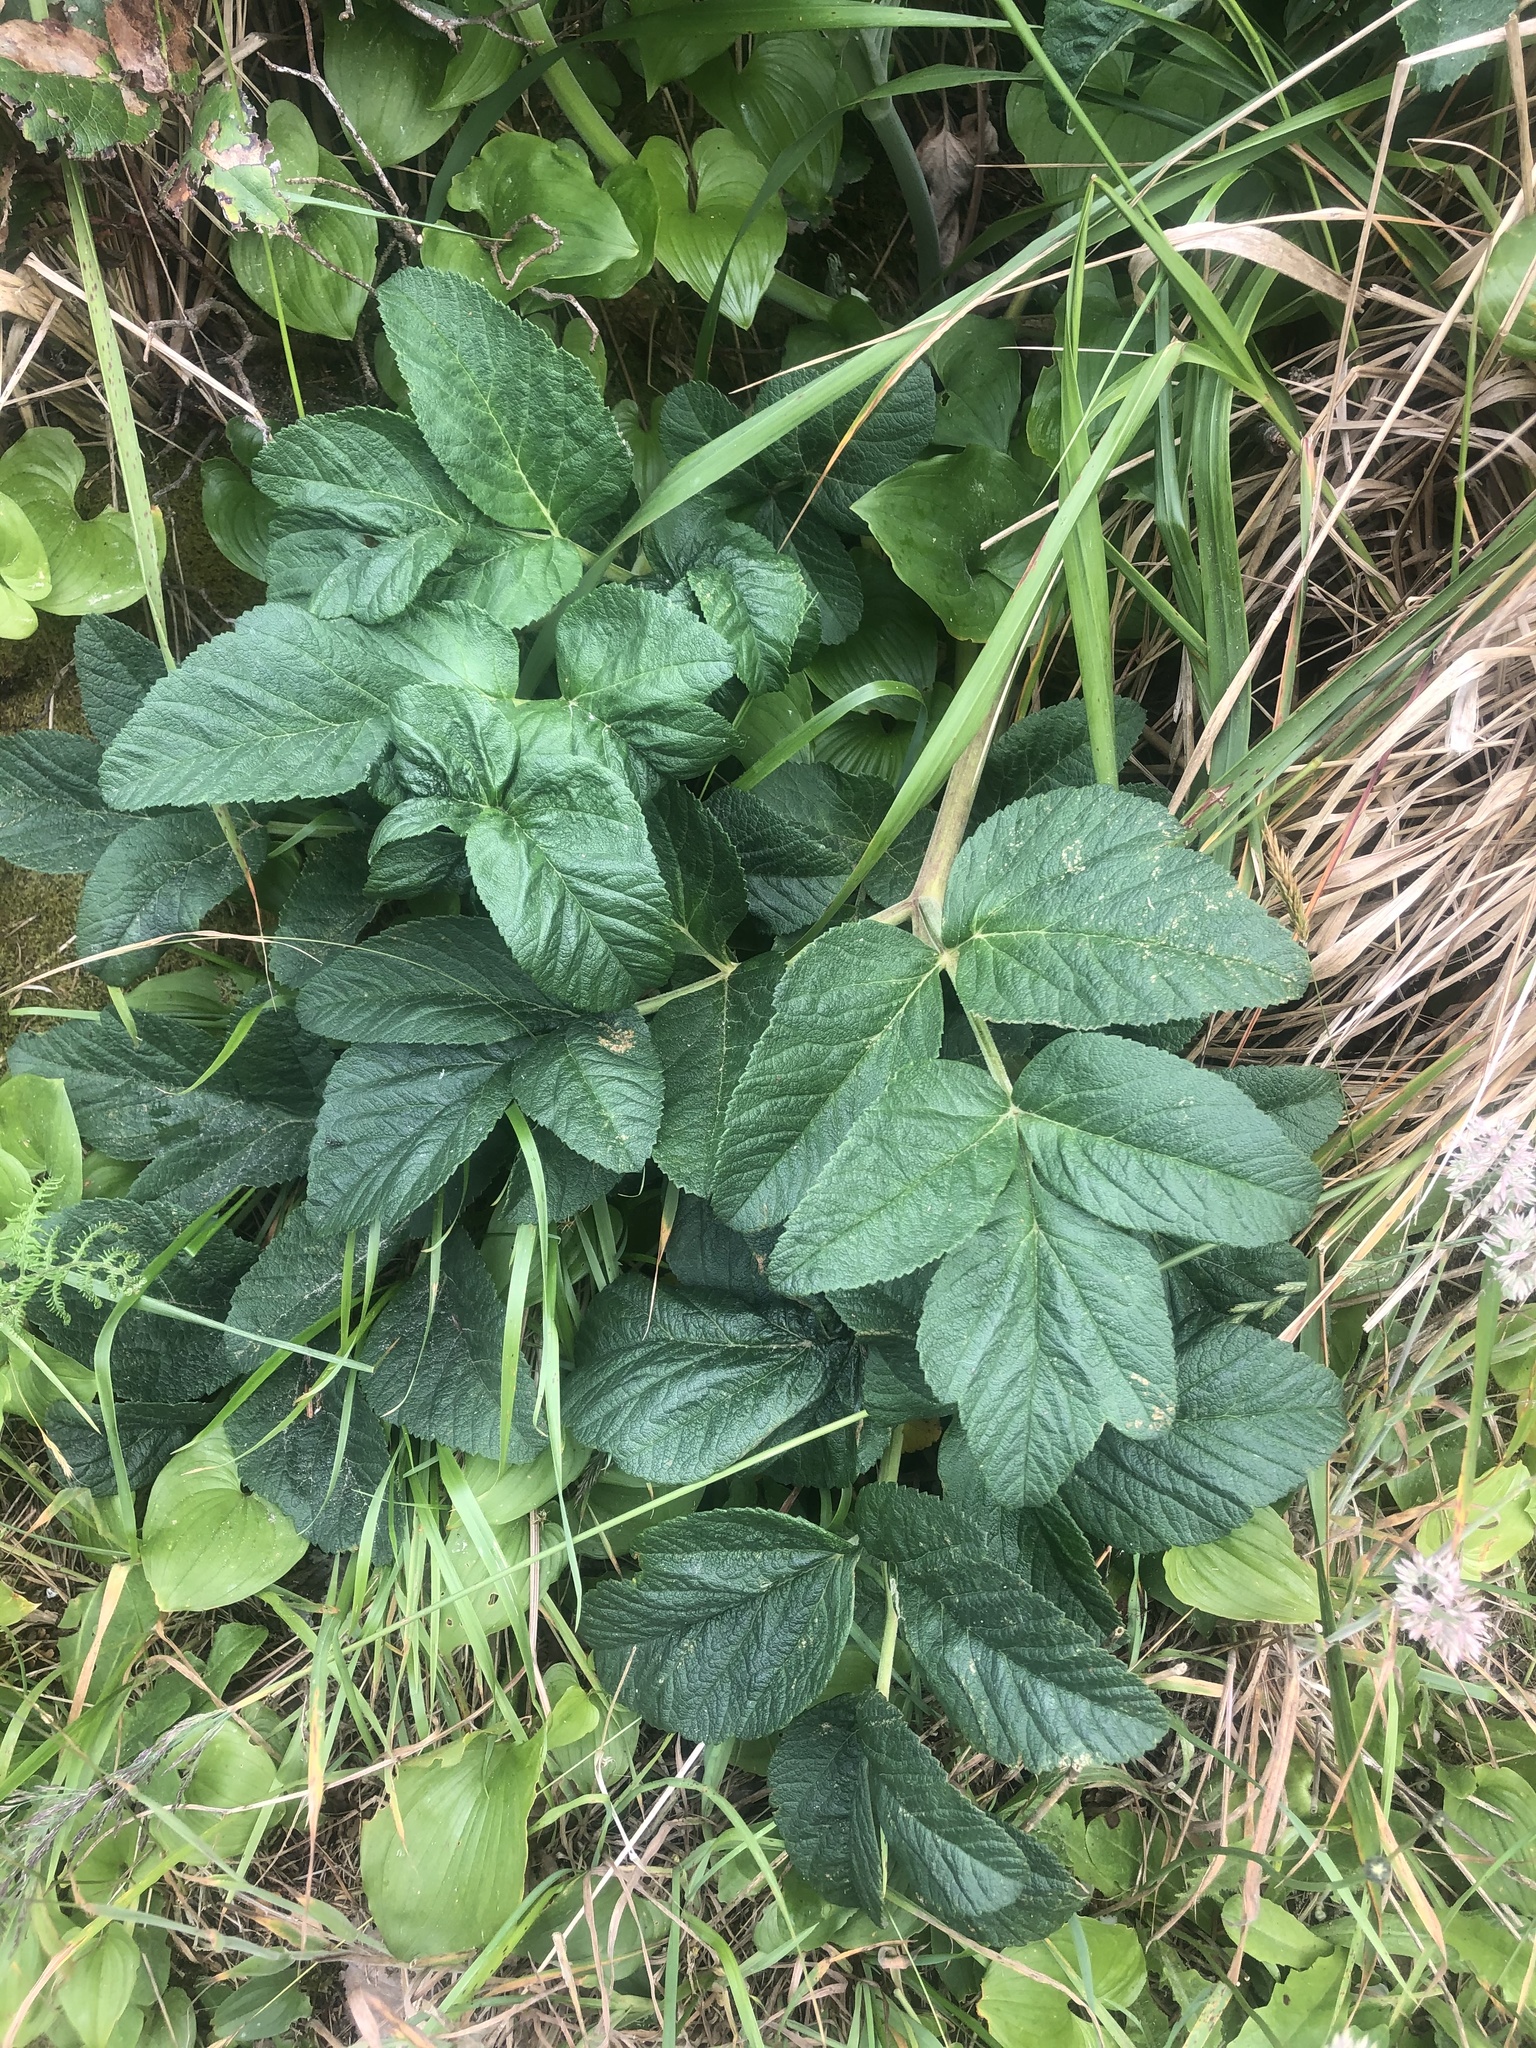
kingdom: Plantae
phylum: Tracheophyta
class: Magnoliopsida
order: Apiales
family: Apiaceae
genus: Angelica
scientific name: Angelica
